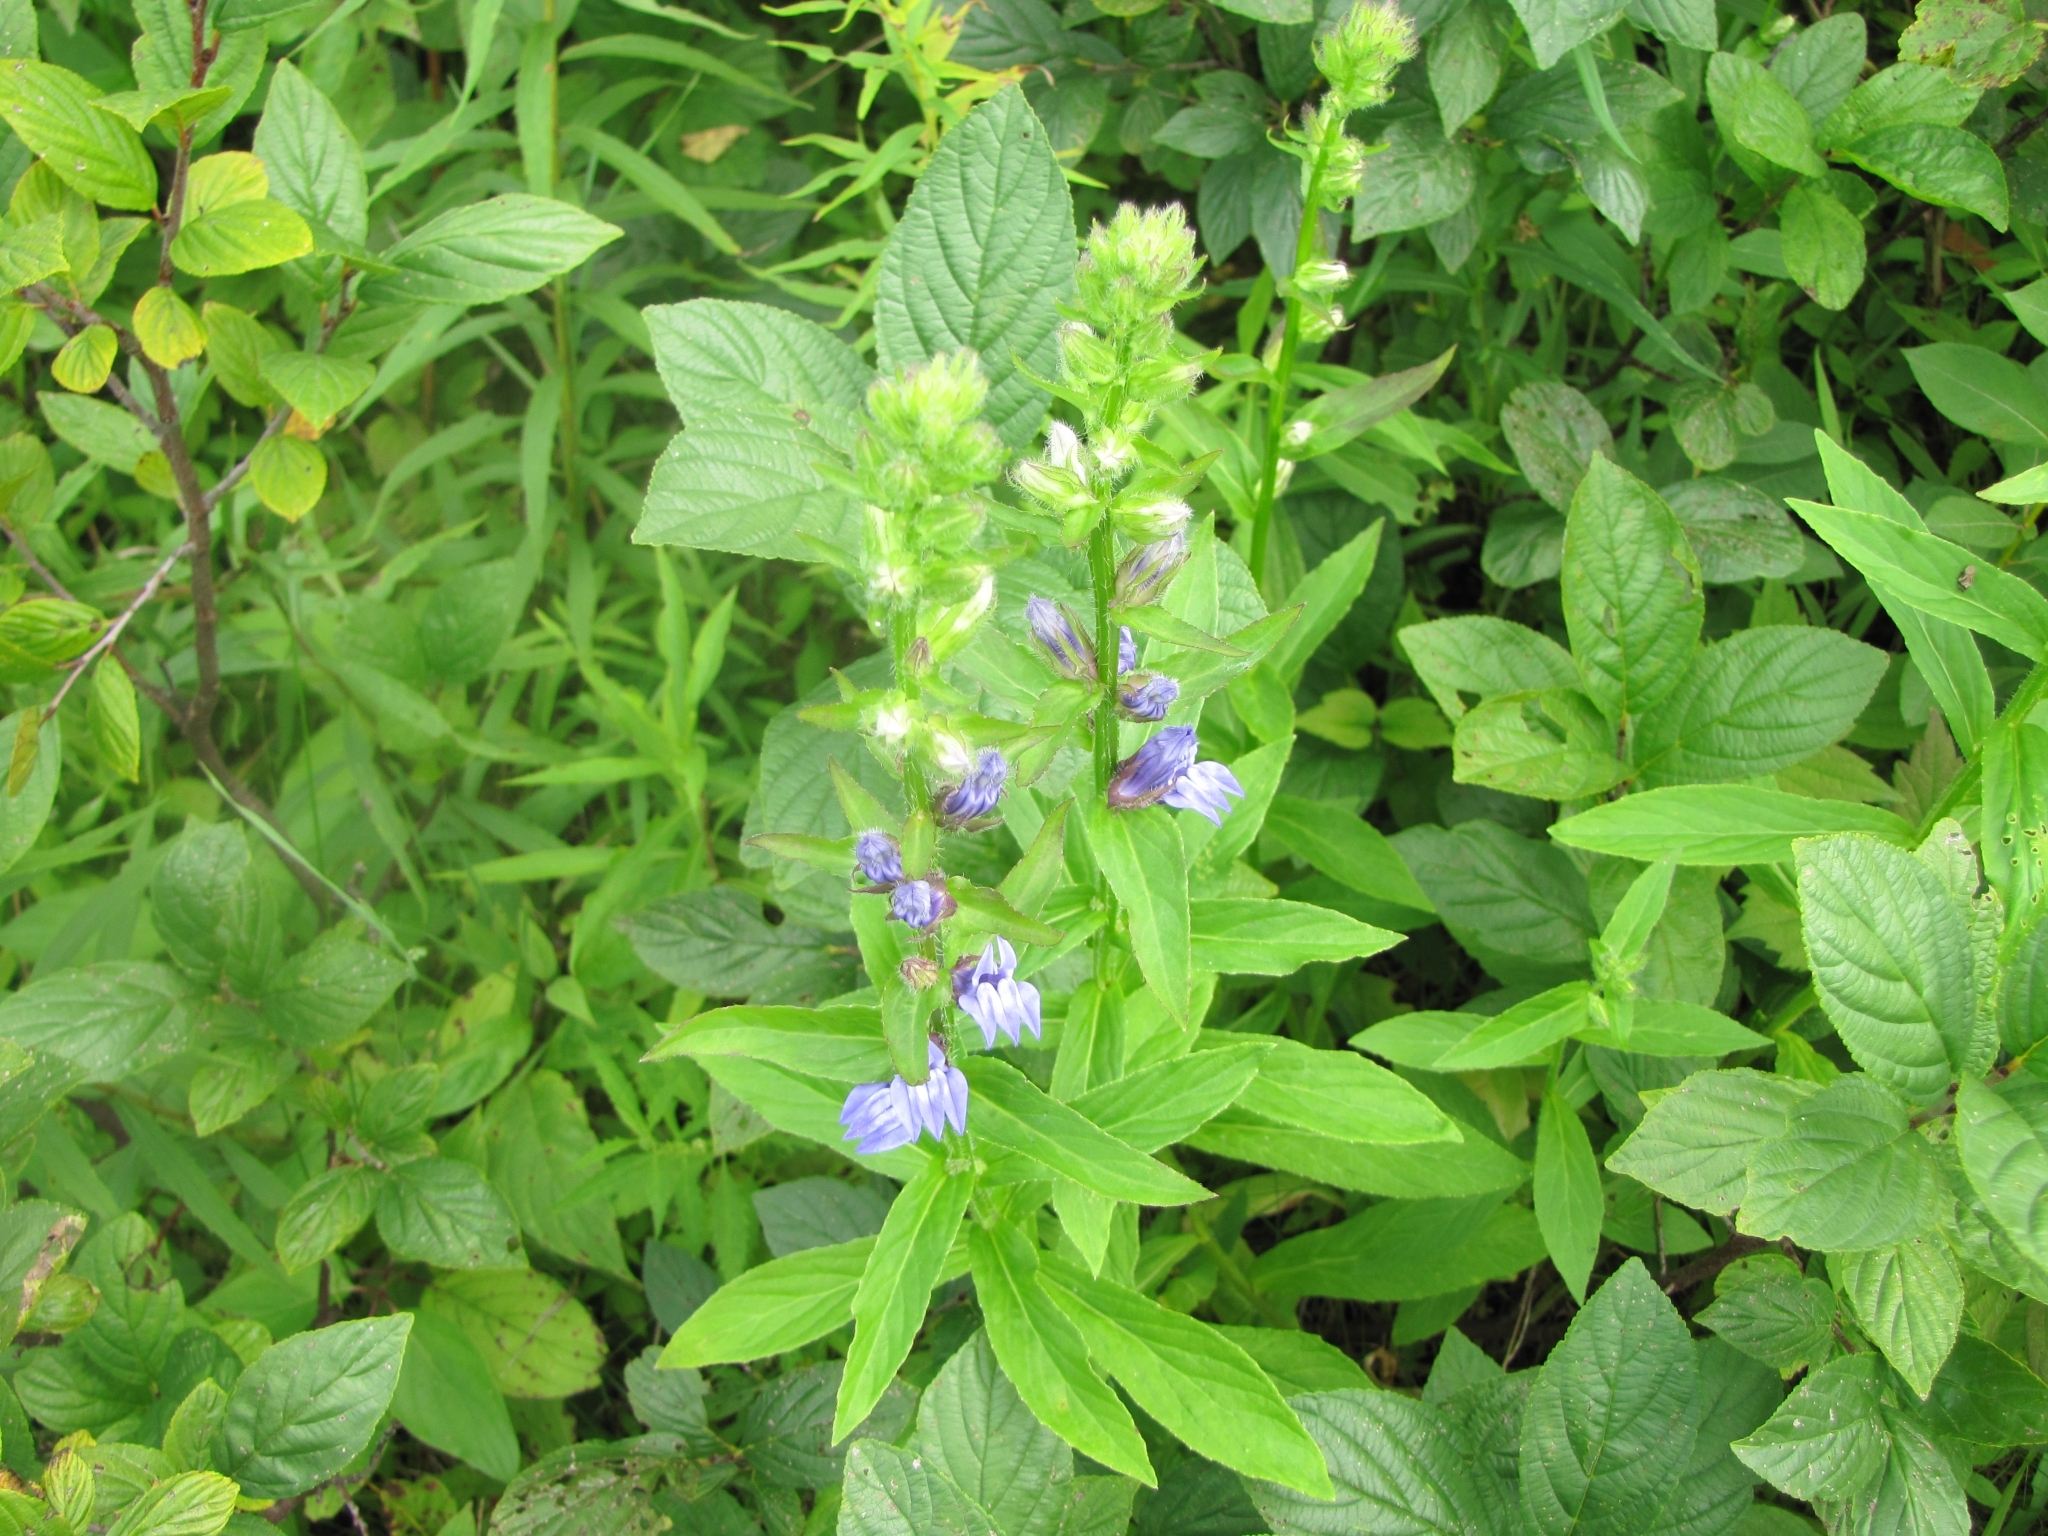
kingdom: Plantae
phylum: Tracheophyta
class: Magnoliopsida
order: Asterales
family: Campanulaceae
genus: Lobelia
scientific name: Lobelia siphilitica
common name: Great lobelia
